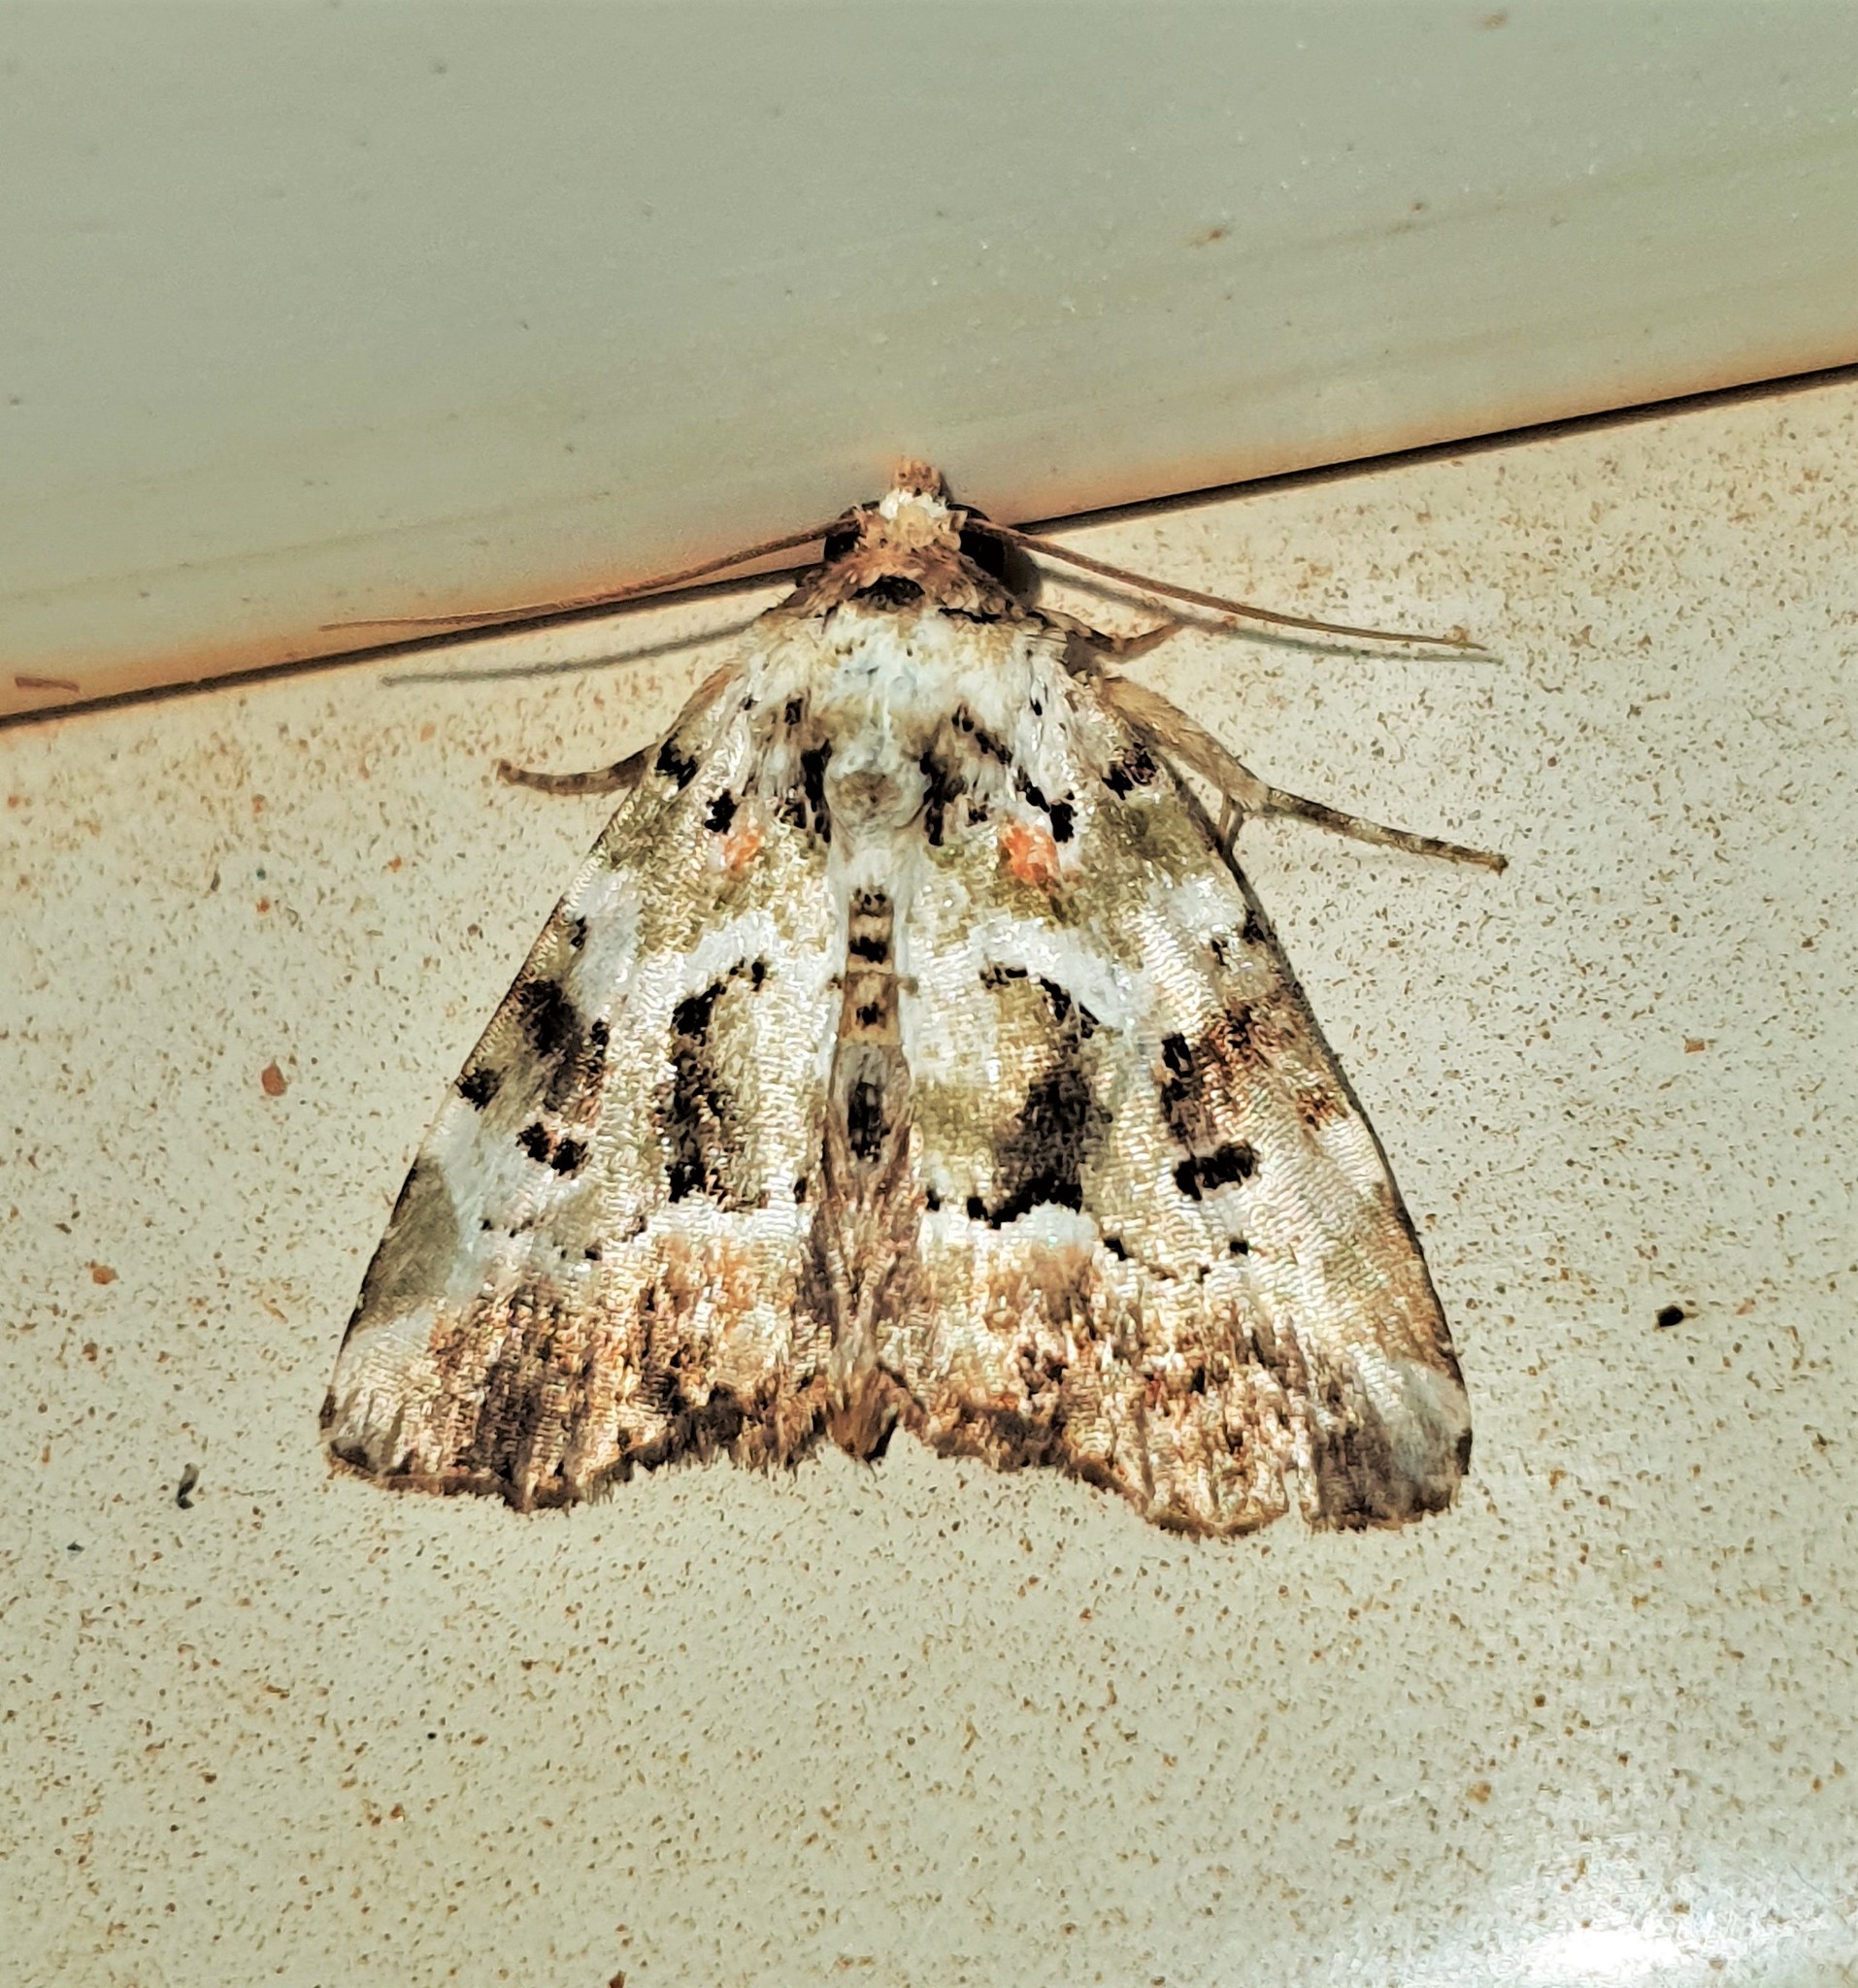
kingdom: Animalia
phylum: Arthropoda
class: Insecta
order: Lepidoptera
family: Noctuidae
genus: Chytonix
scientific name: Chytonix mniochroa
